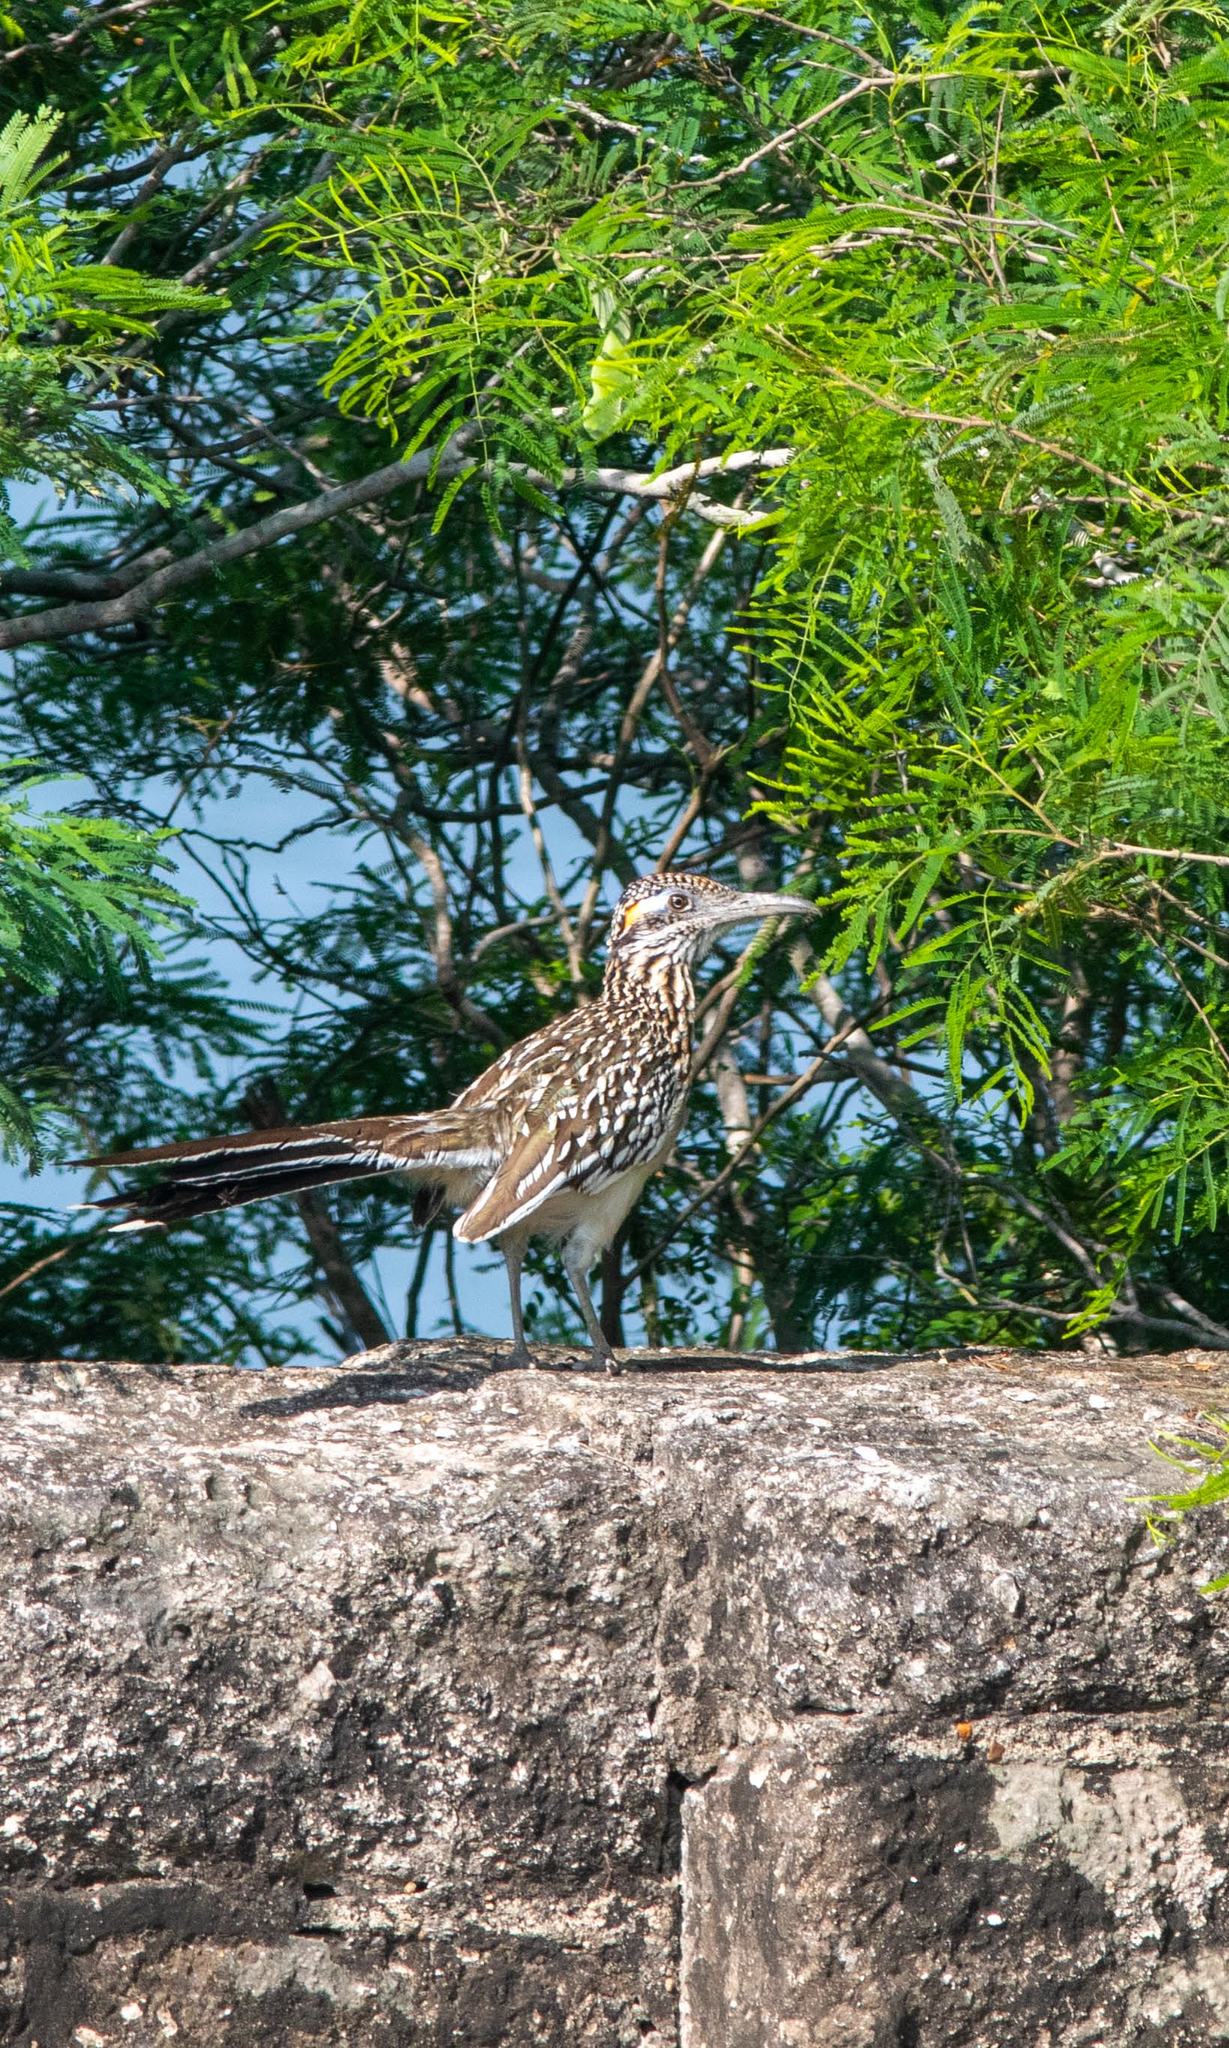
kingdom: Animalia
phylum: Chordata
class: Aves
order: Cuculiformes
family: Cuculidae
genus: Geococcyx
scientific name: Geococcyx californianus
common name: Greater roadrunner
